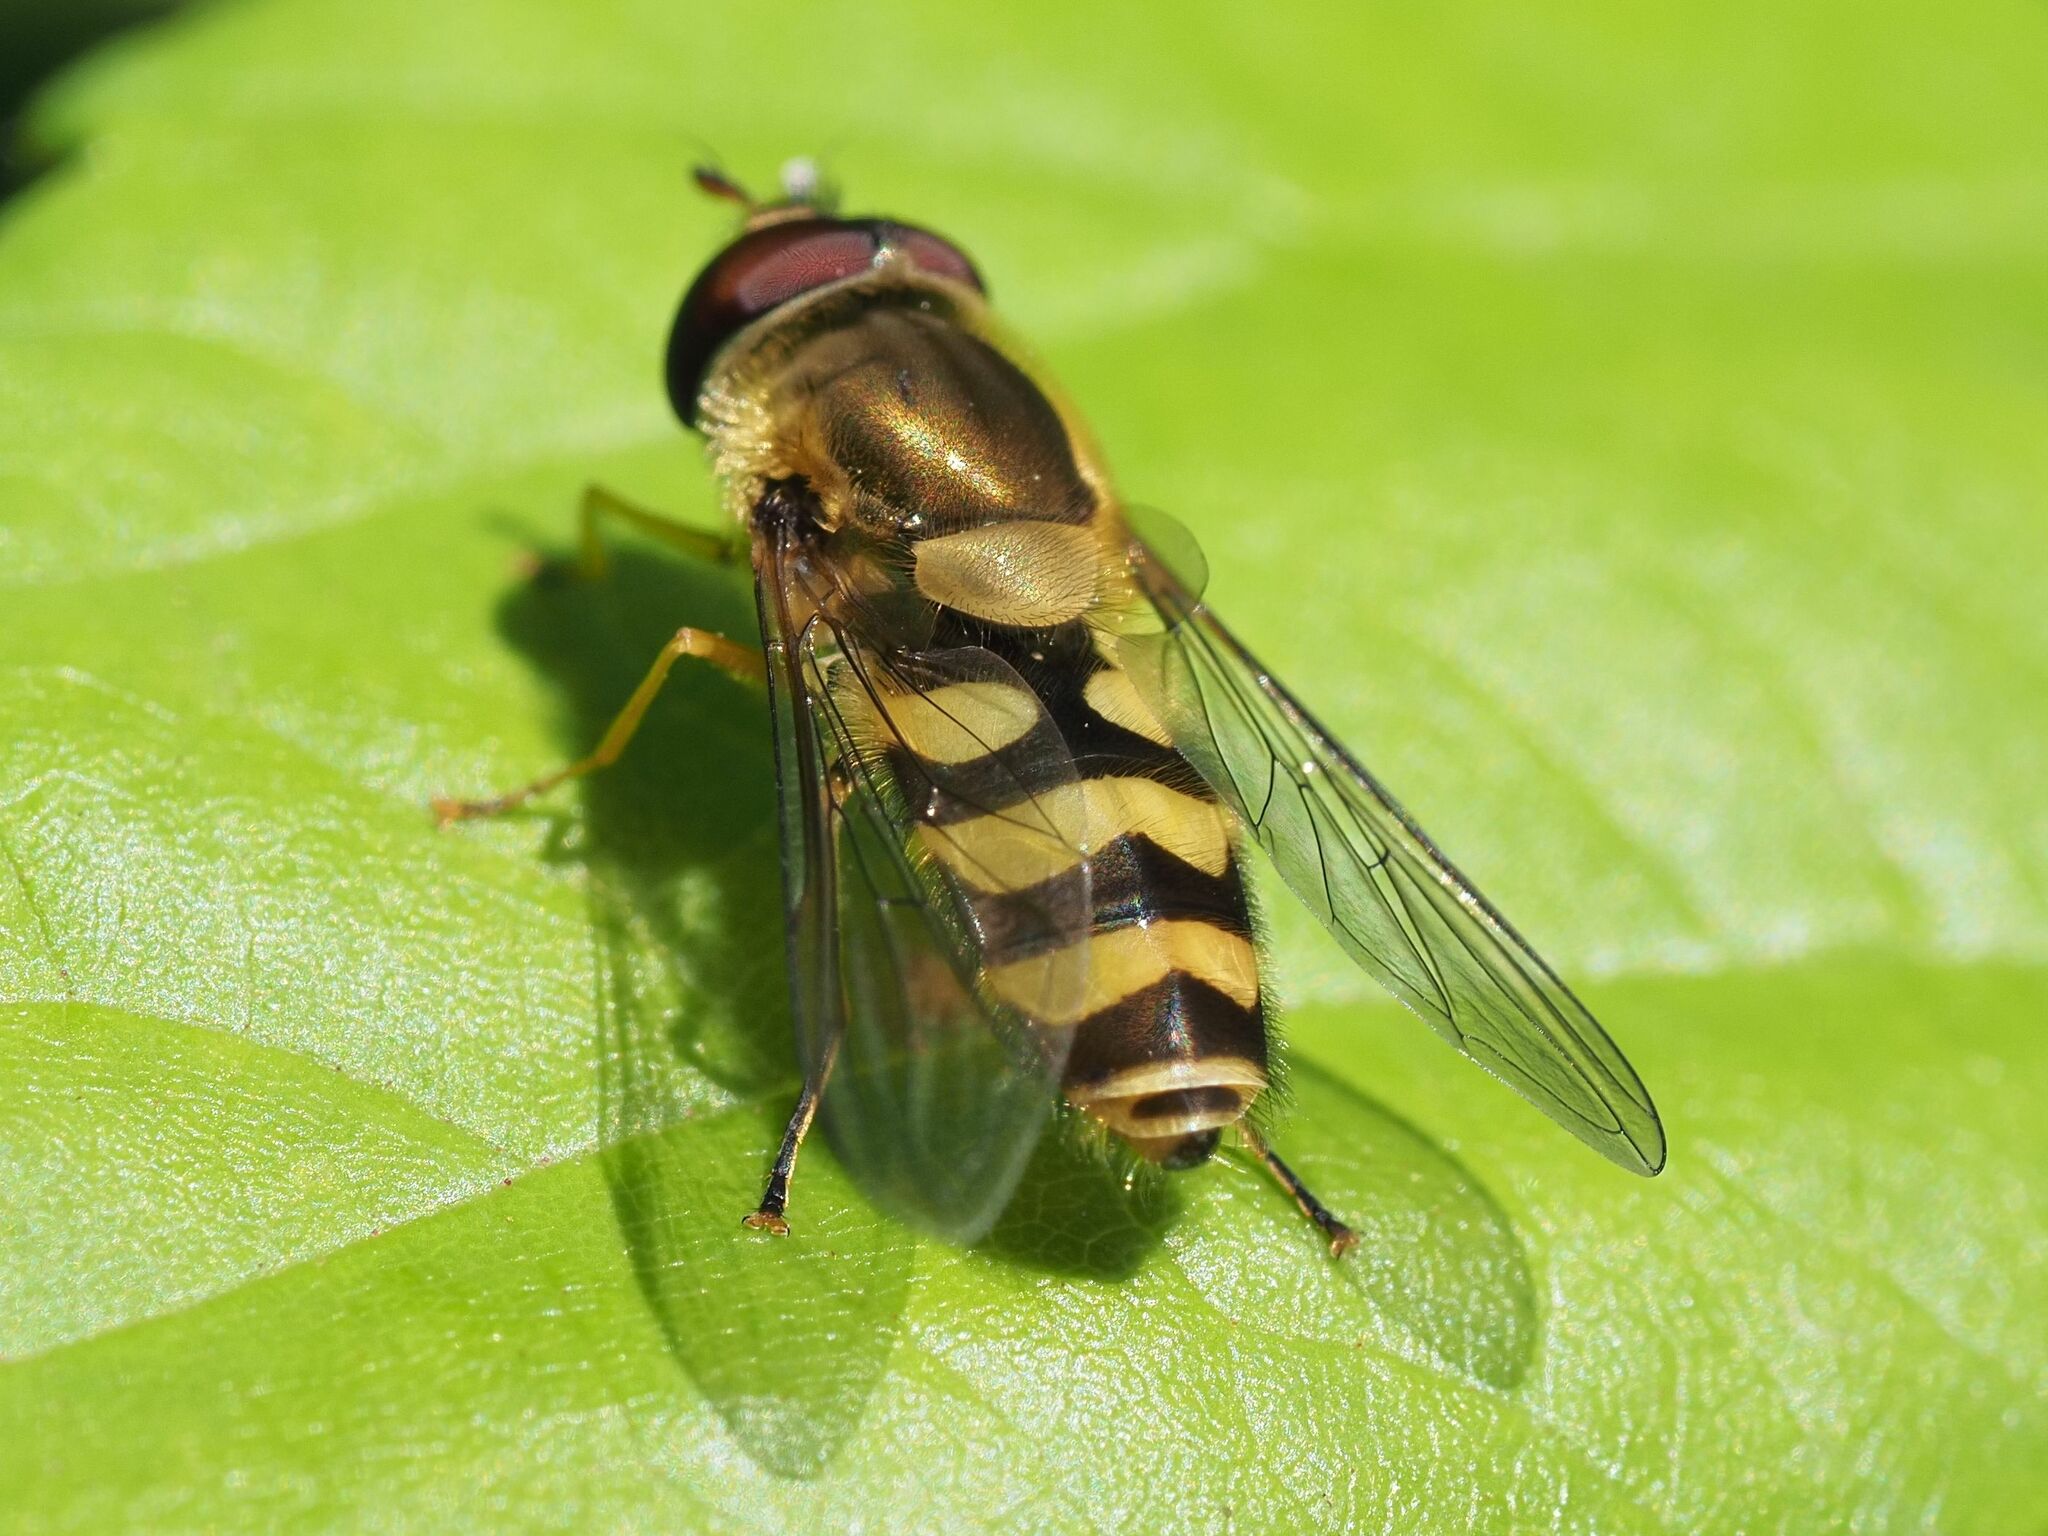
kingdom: Animalia
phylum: Arthropoda
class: Insecta
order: Diptera
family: Syrphidae
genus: Syrphus
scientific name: Syrphus
